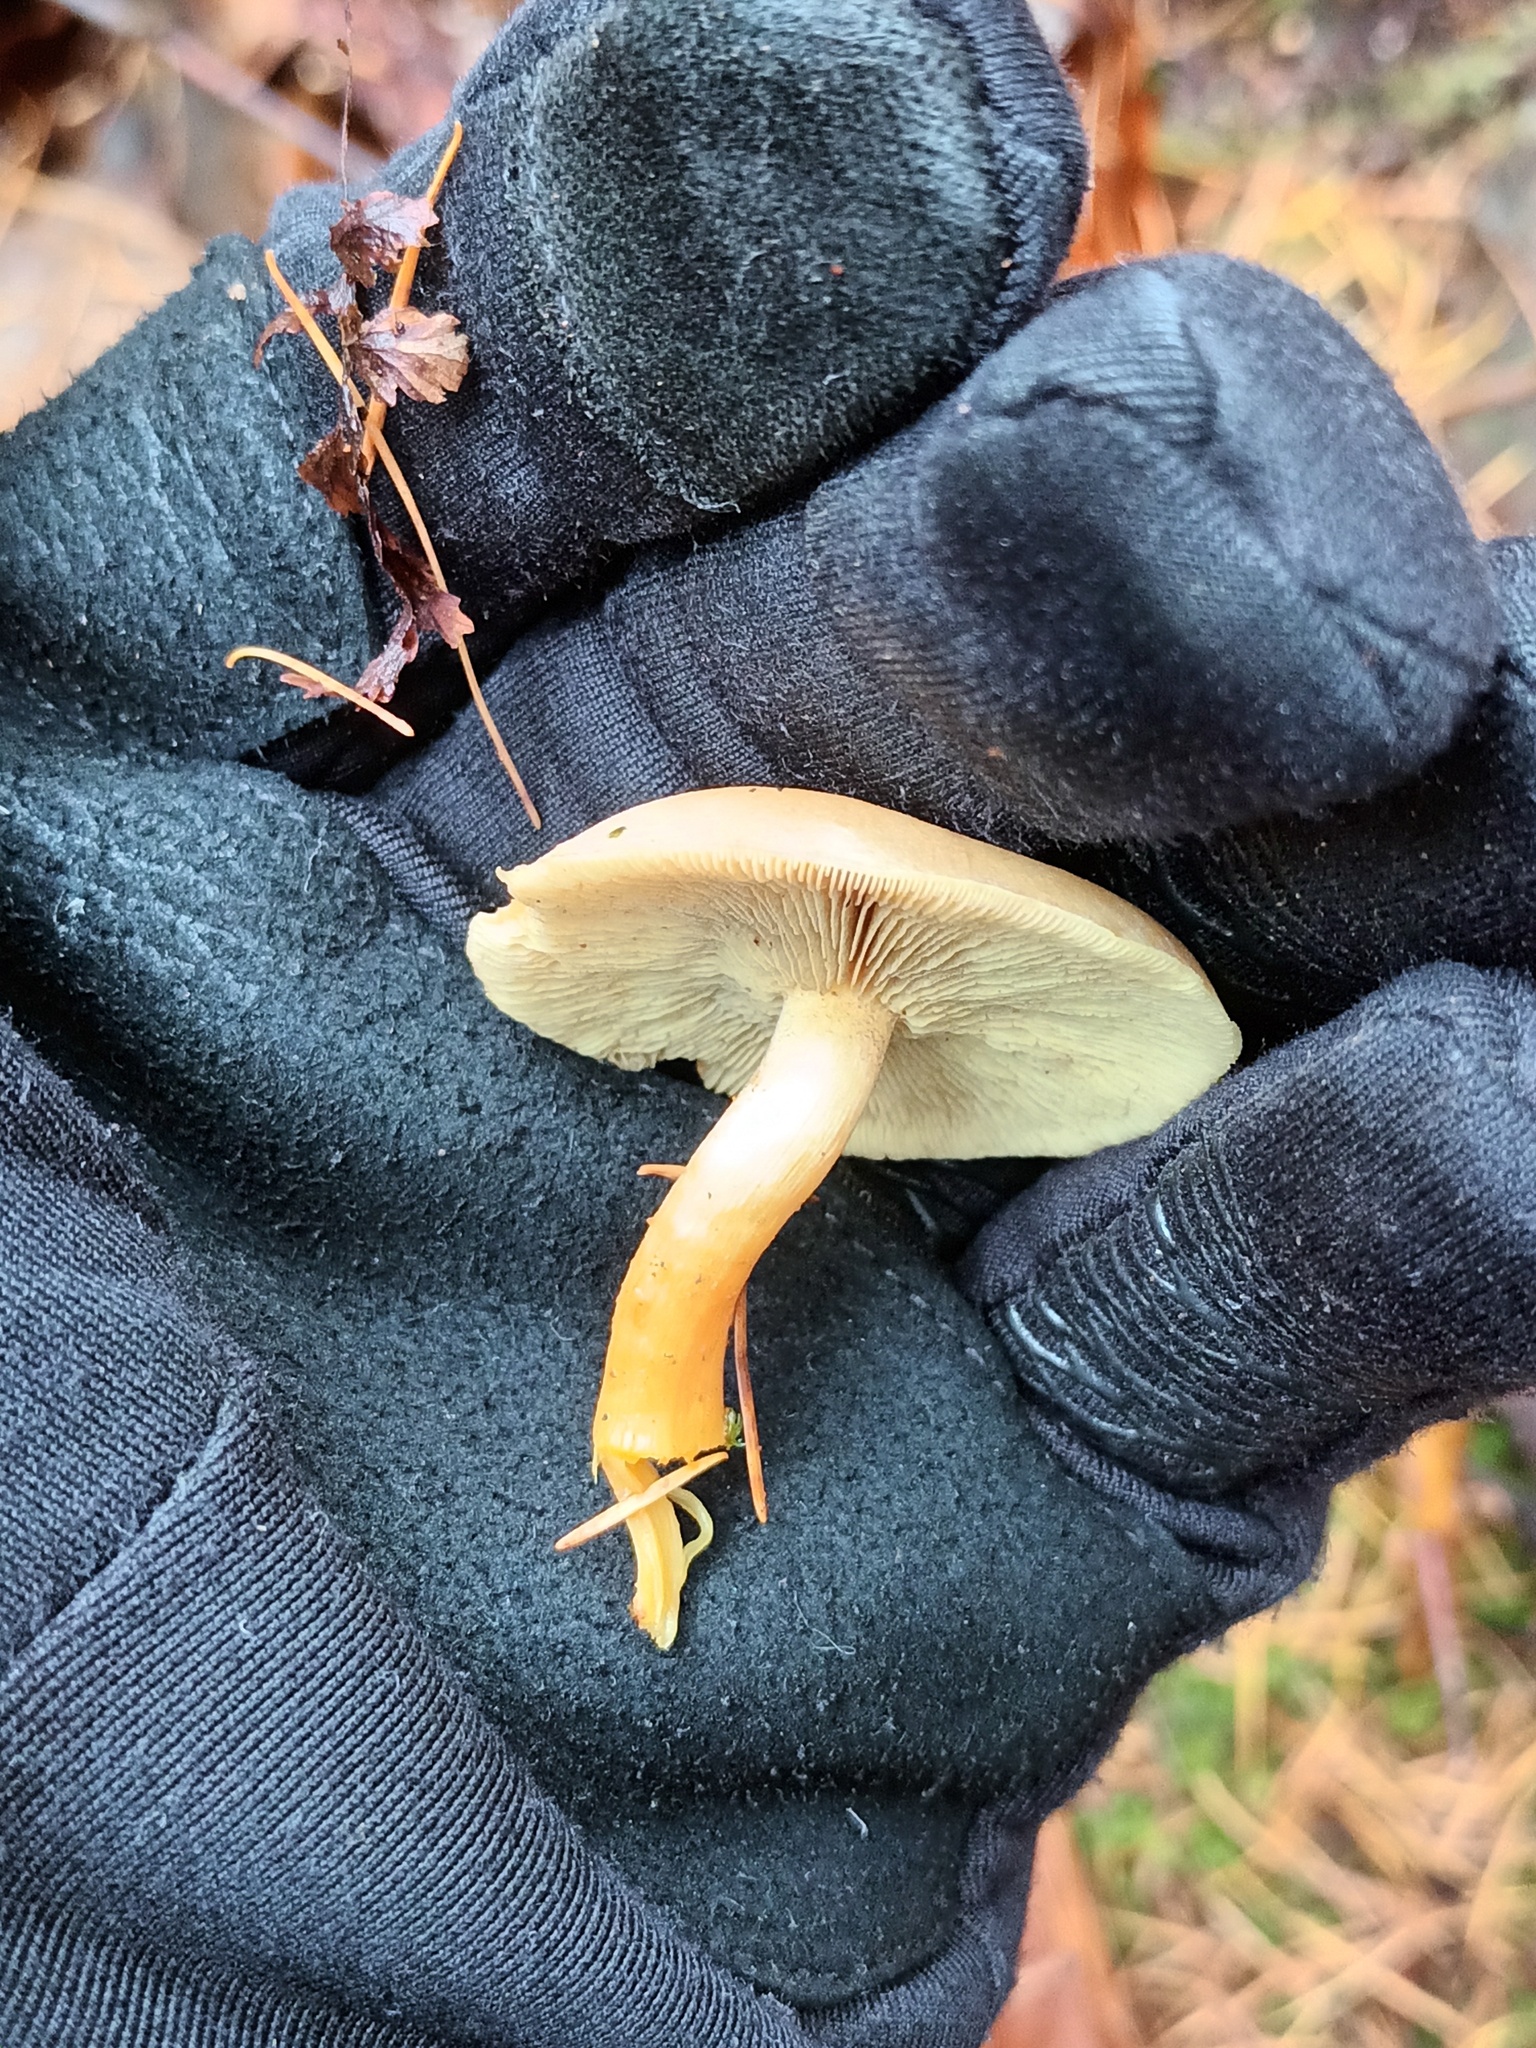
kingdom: Fungi
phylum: Basidiomycota
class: Agaricomycetes
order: Agaricales
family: Strophariaceae
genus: Hypholoma
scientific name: Hypholoma fasciculare
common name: Sulphur tuft
